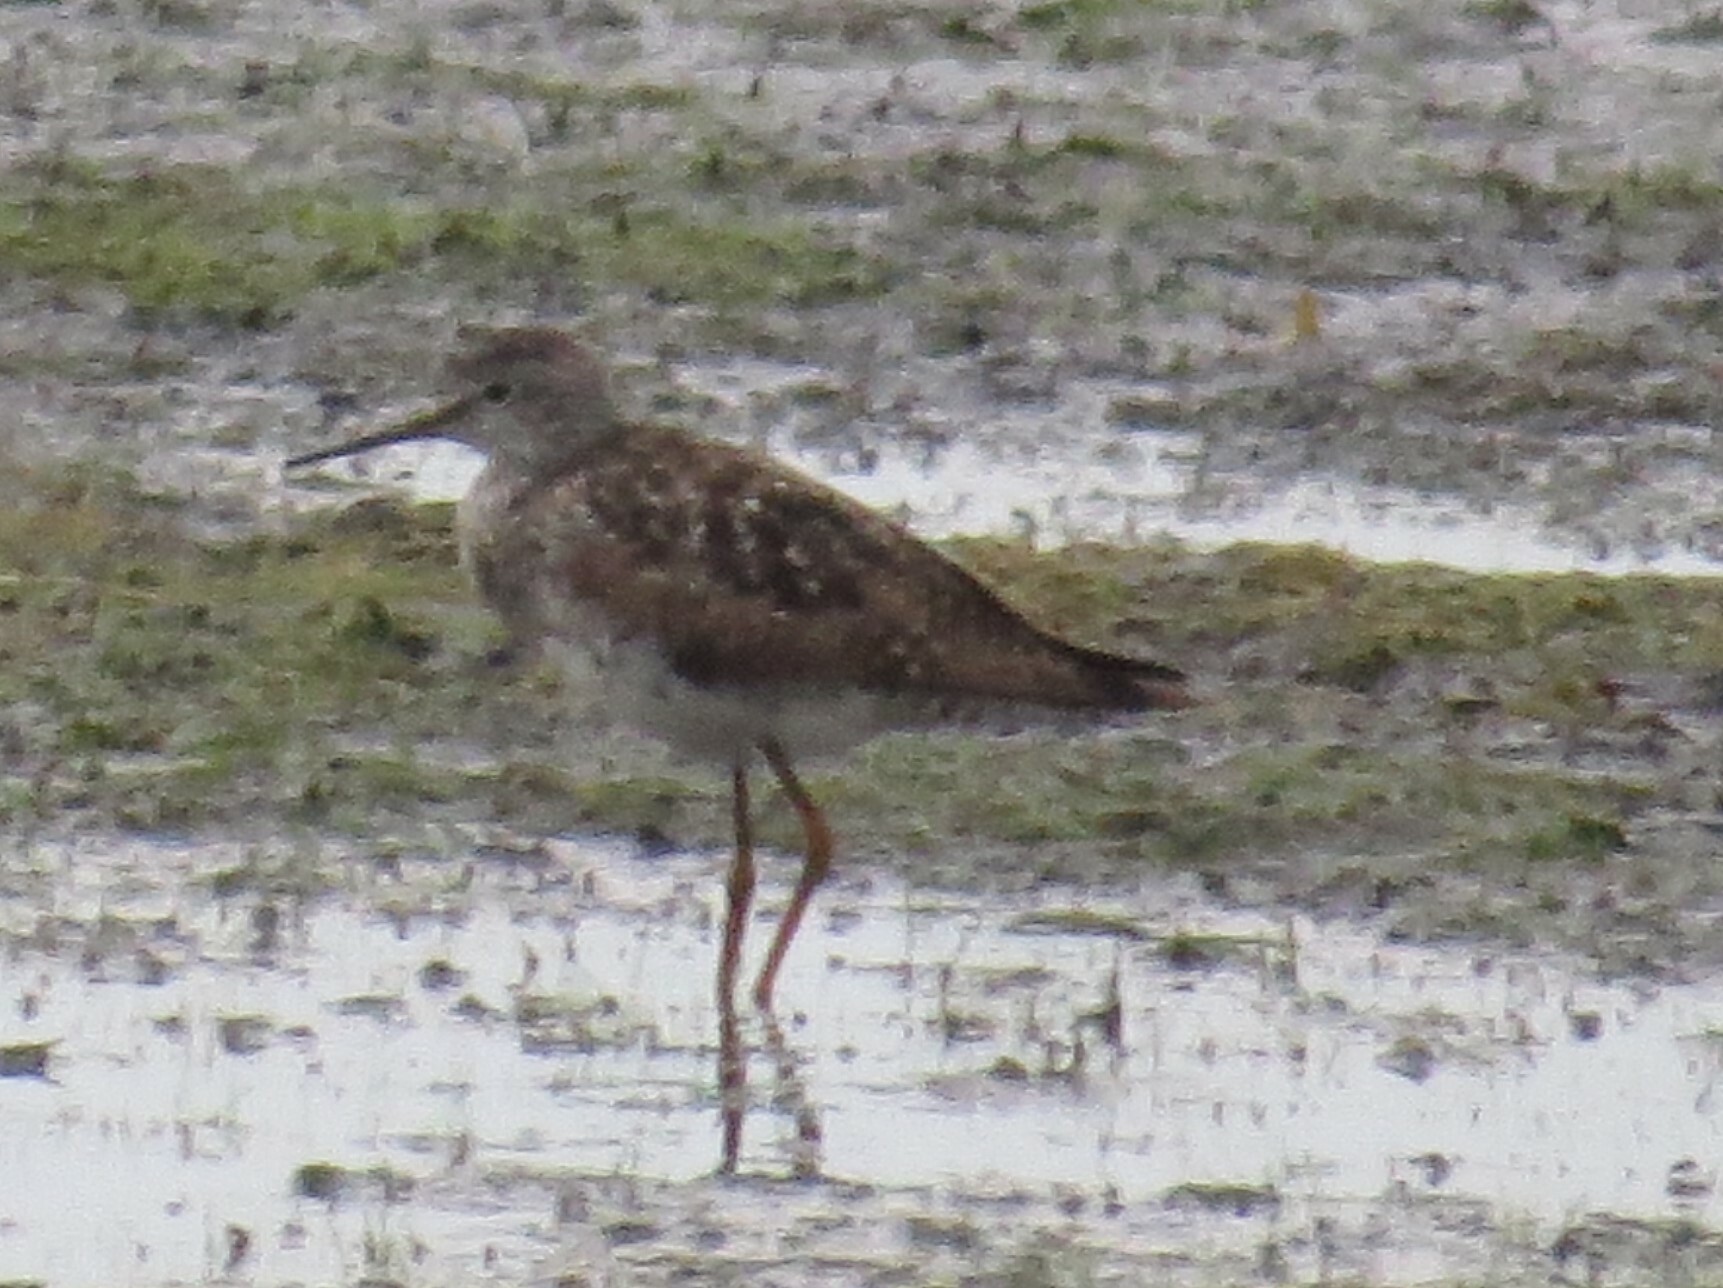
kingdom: Animalia
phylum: Chordata
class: Aves
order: Charadriiformes
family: Scolopacidae
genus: Tringa
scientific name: Tringa flavipes
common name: Lesser yellowlegs
